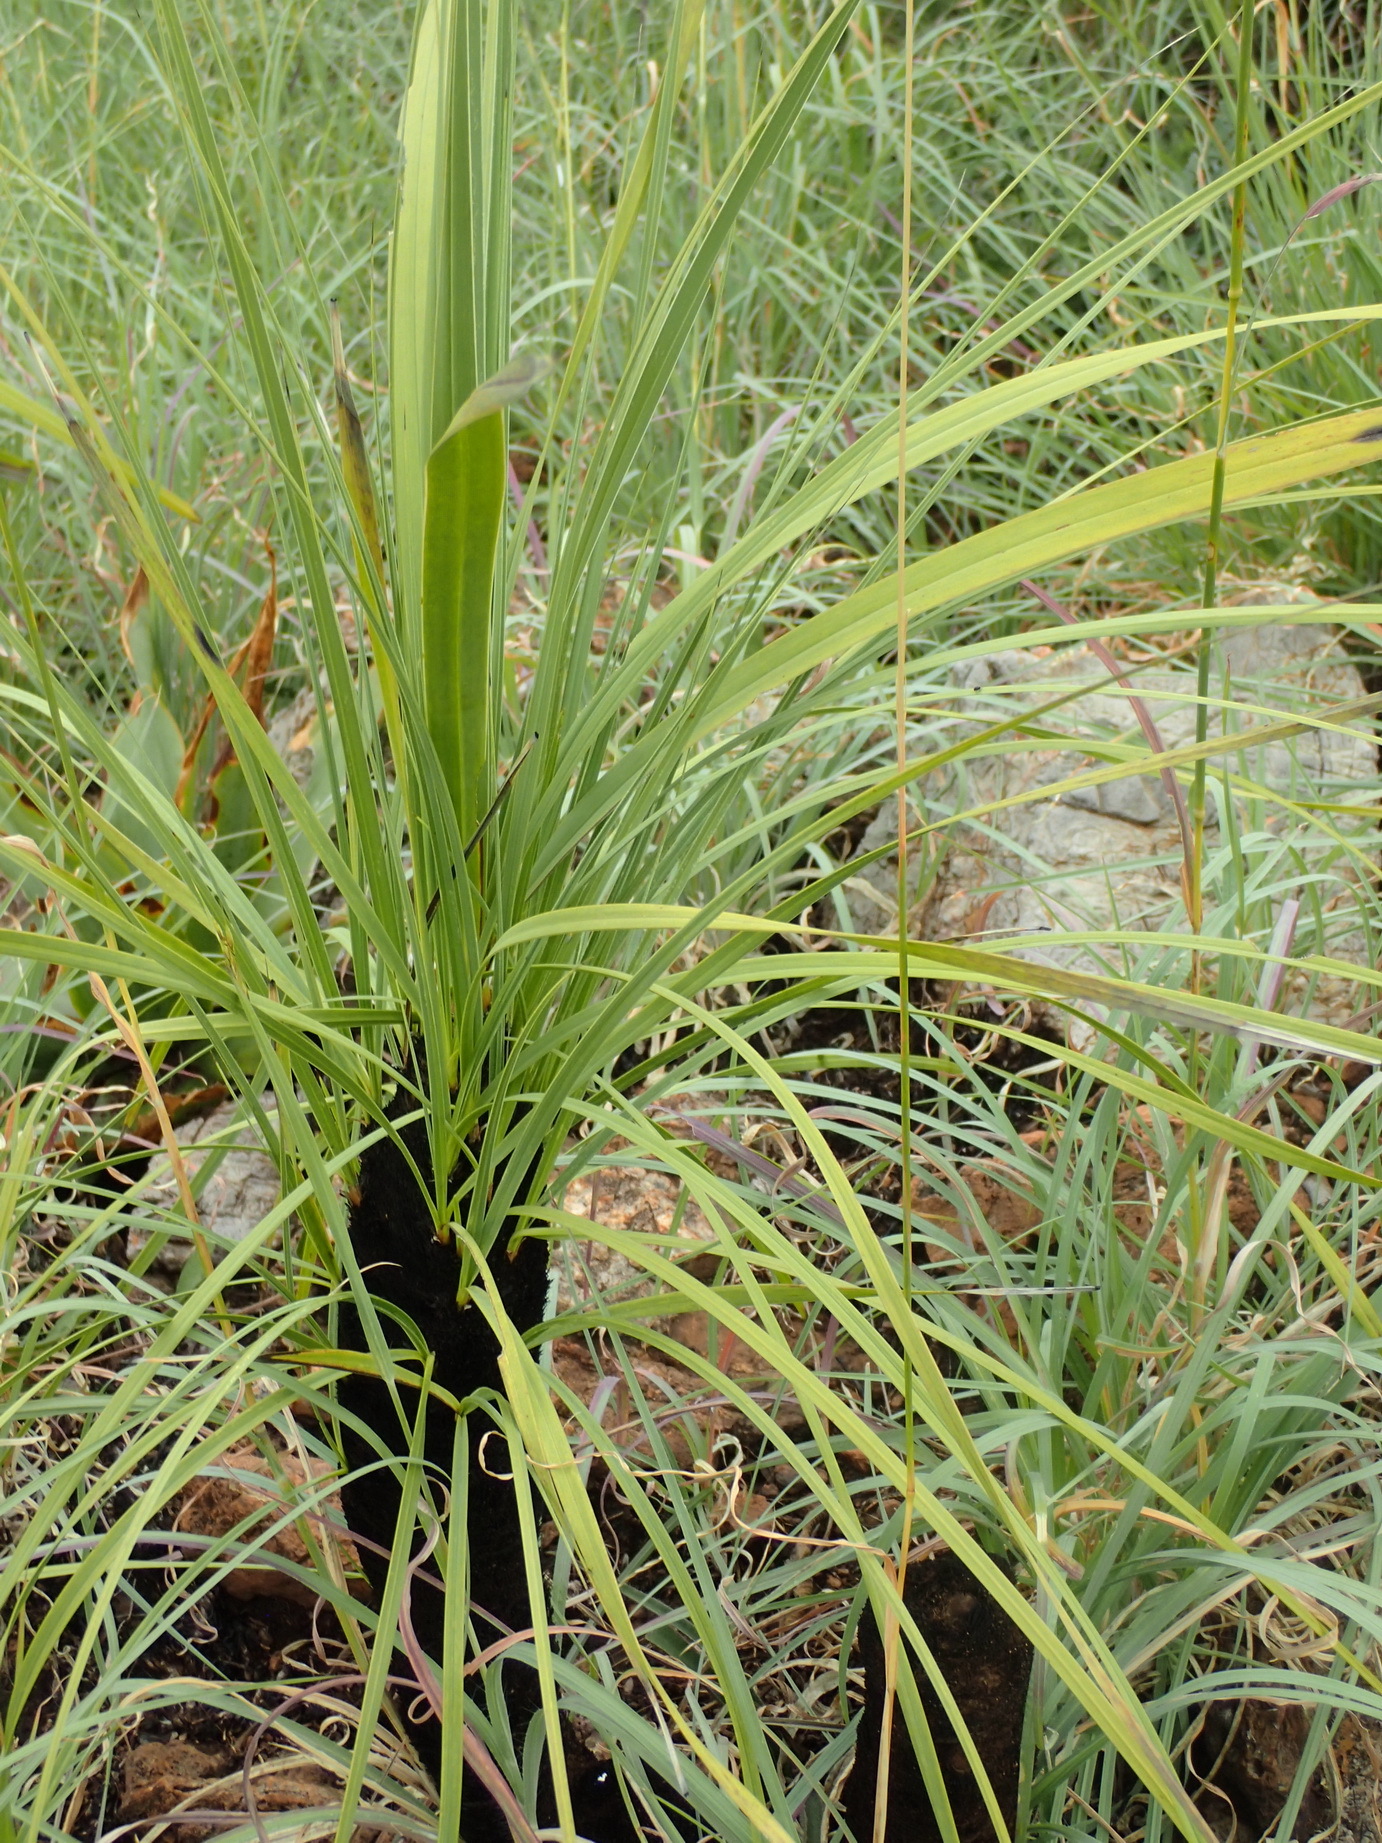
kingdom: Plantae
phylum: Tracheophyta
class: Liliopsida
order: Pandanales
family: Velloziaceae
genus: Xerophyta
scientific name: Xerophyta retinervis
